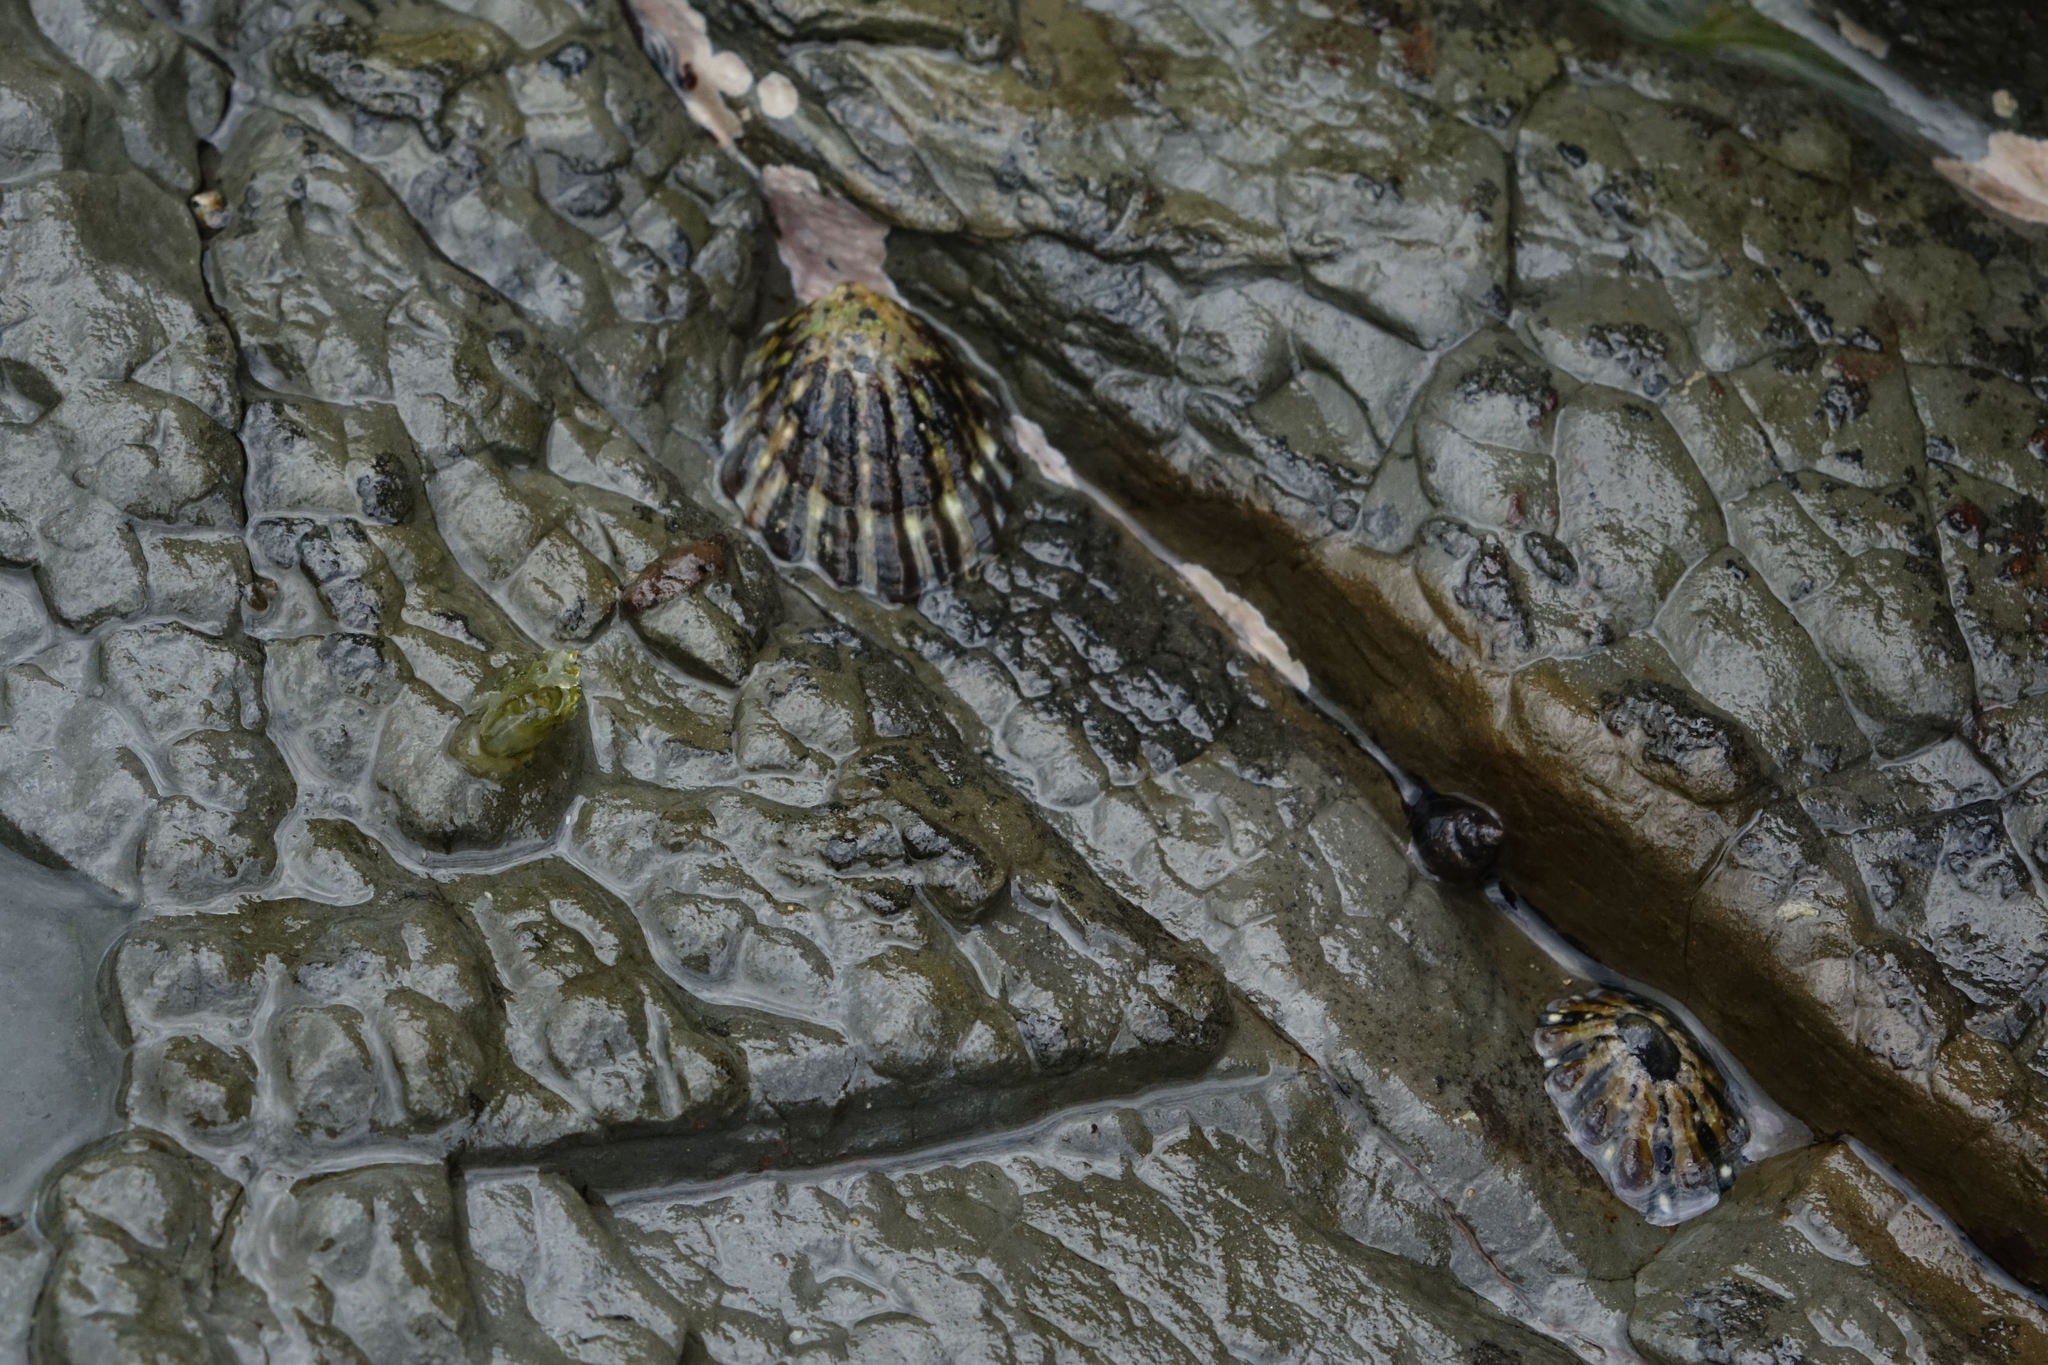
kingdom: Animalia
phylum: Mollusca
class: Gastropoda
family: Nacellidae
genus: Cellana
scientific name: Cellana strigilis
